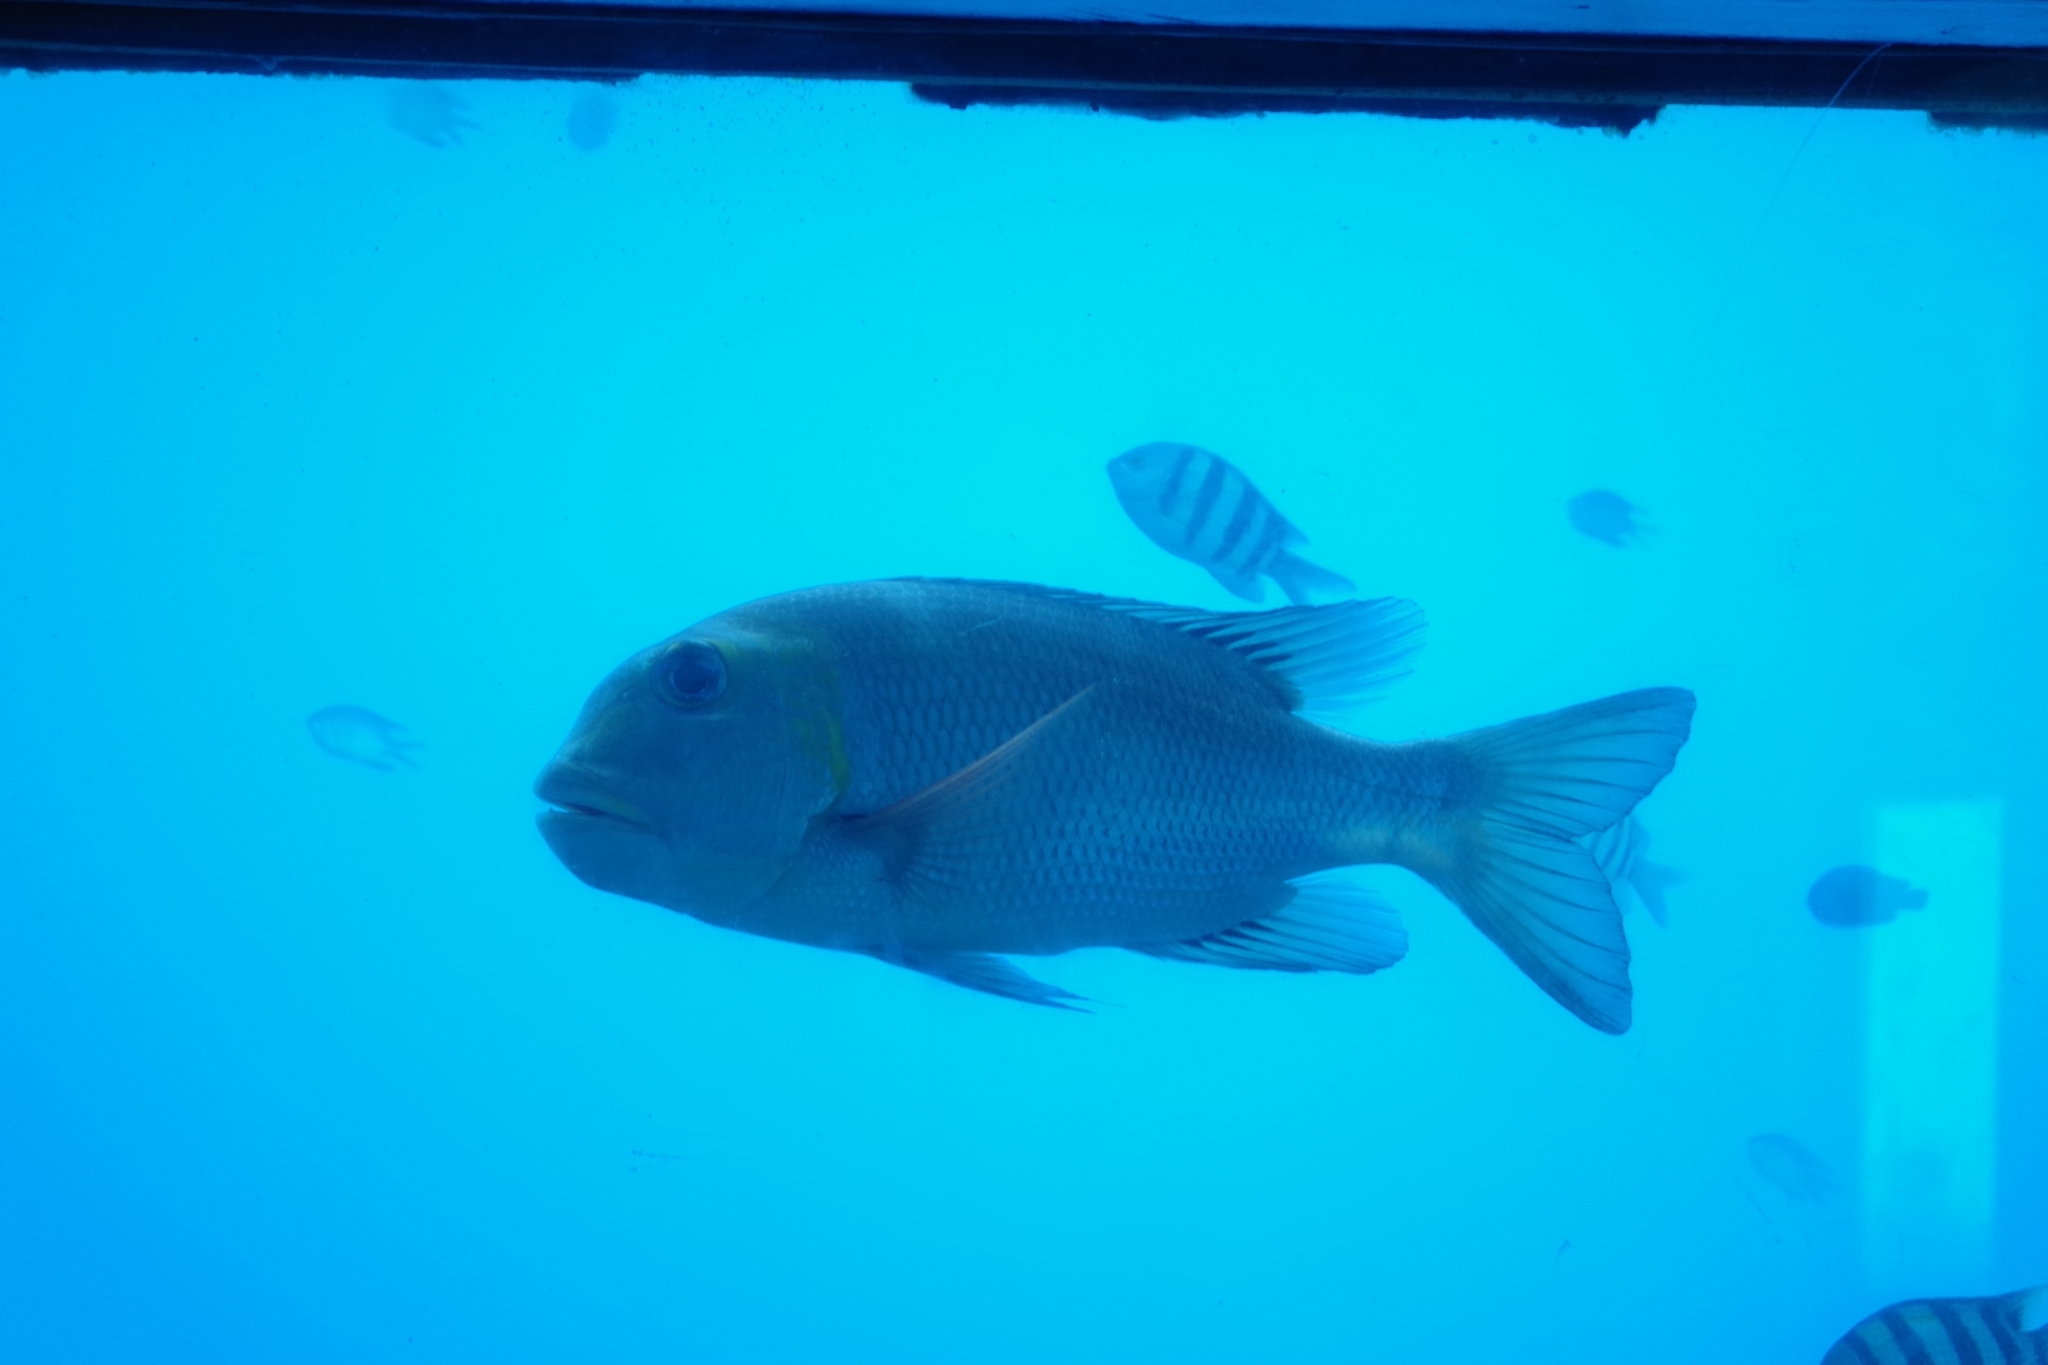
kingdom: Animalia
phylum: Chordata
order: Perciformes
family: Lethrinidae
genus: Monotaxis
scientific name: Monotaxis grandoculis
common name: Bigeye emperor
